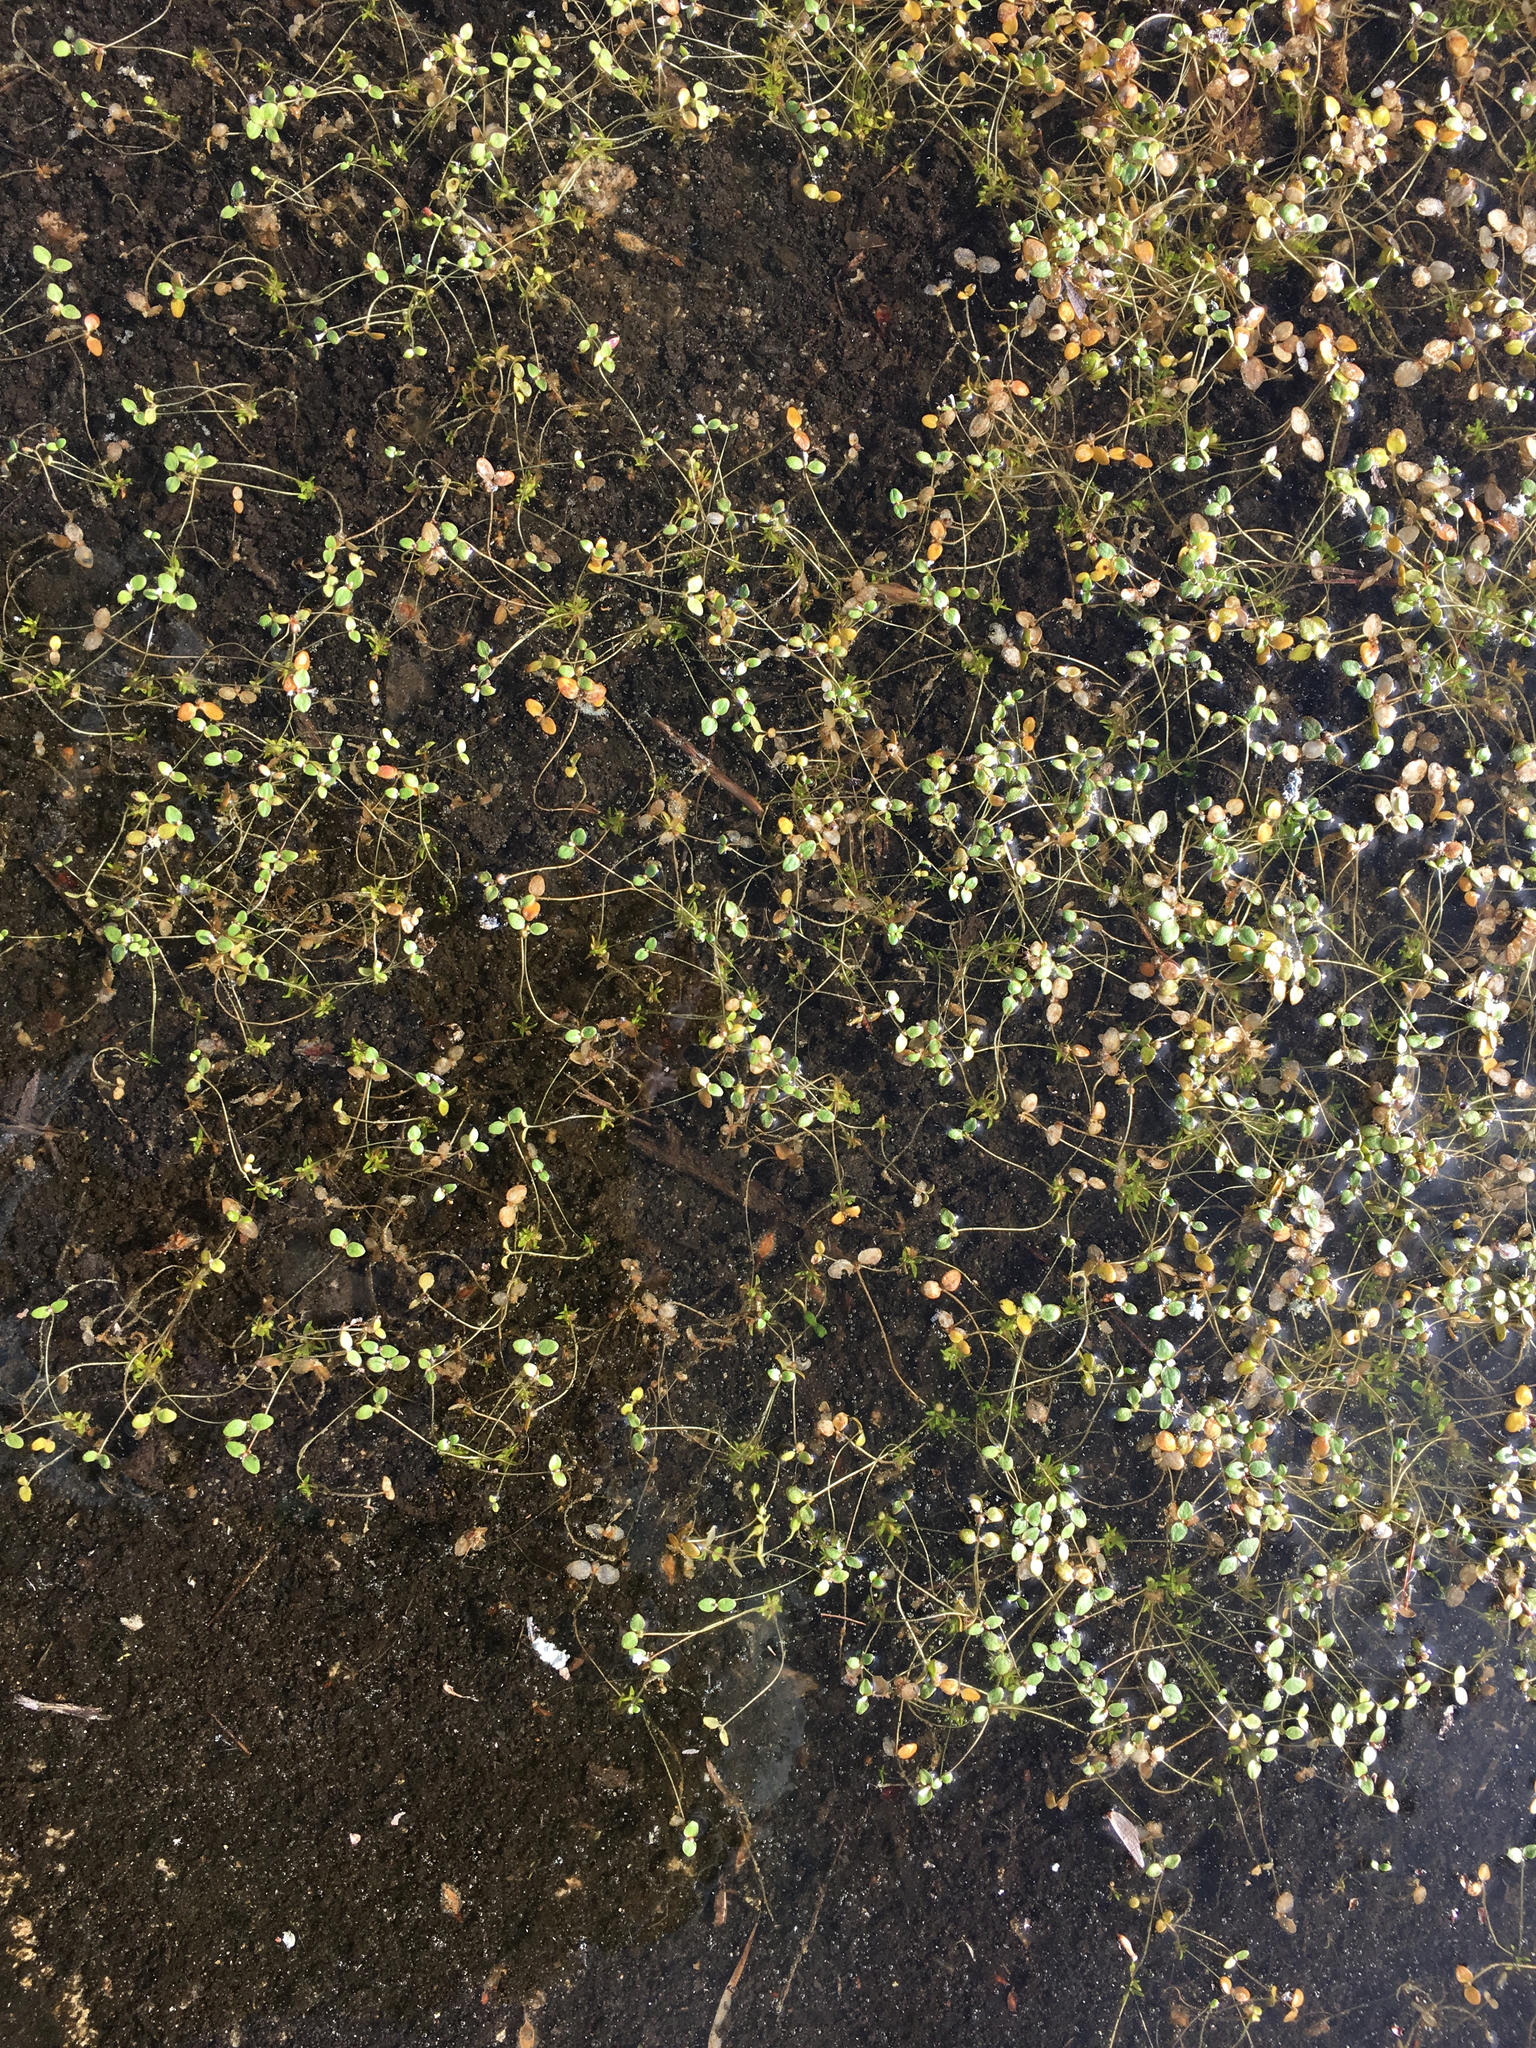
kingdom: Plantae
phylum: Tracheophyta
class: Magnoliopsida
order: Lamiales
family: Plantaginaceae
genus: Gratiola
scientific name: Gratiola amphiantha
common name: Little amphianthus
